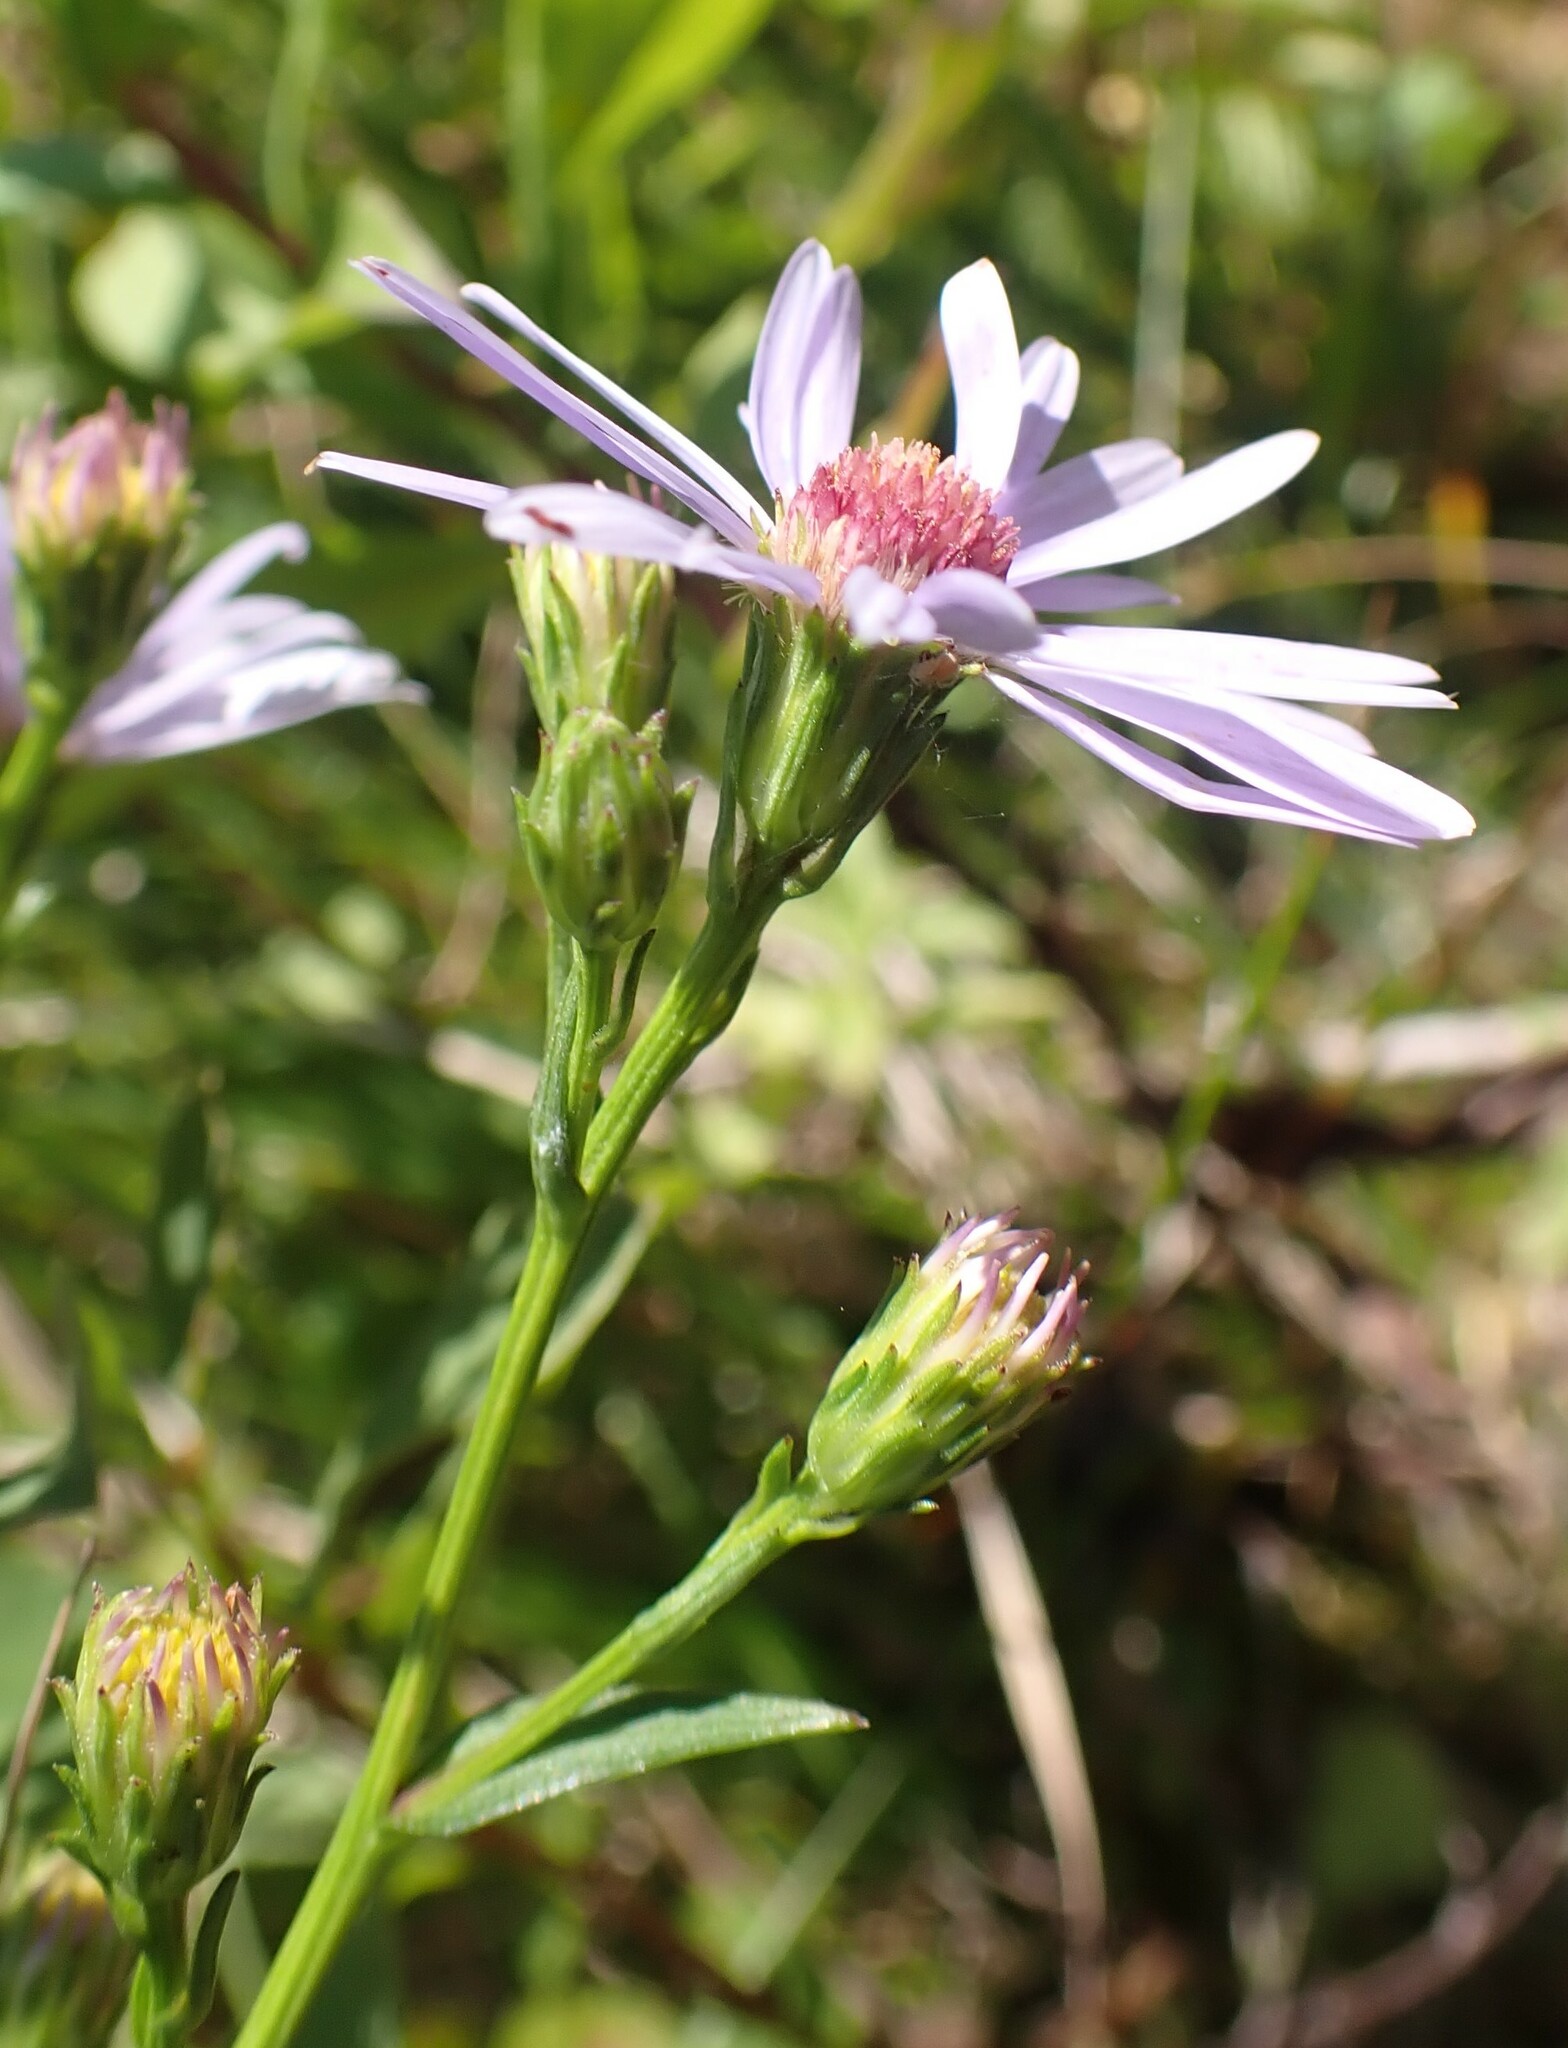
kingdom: Plantae
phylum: Tracheophyta
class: Magnoliopsida
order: Asterales
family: Asteraceae
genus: Symphyotrichum
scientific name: Symphyotrichum laeve
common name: Glaucous aster
